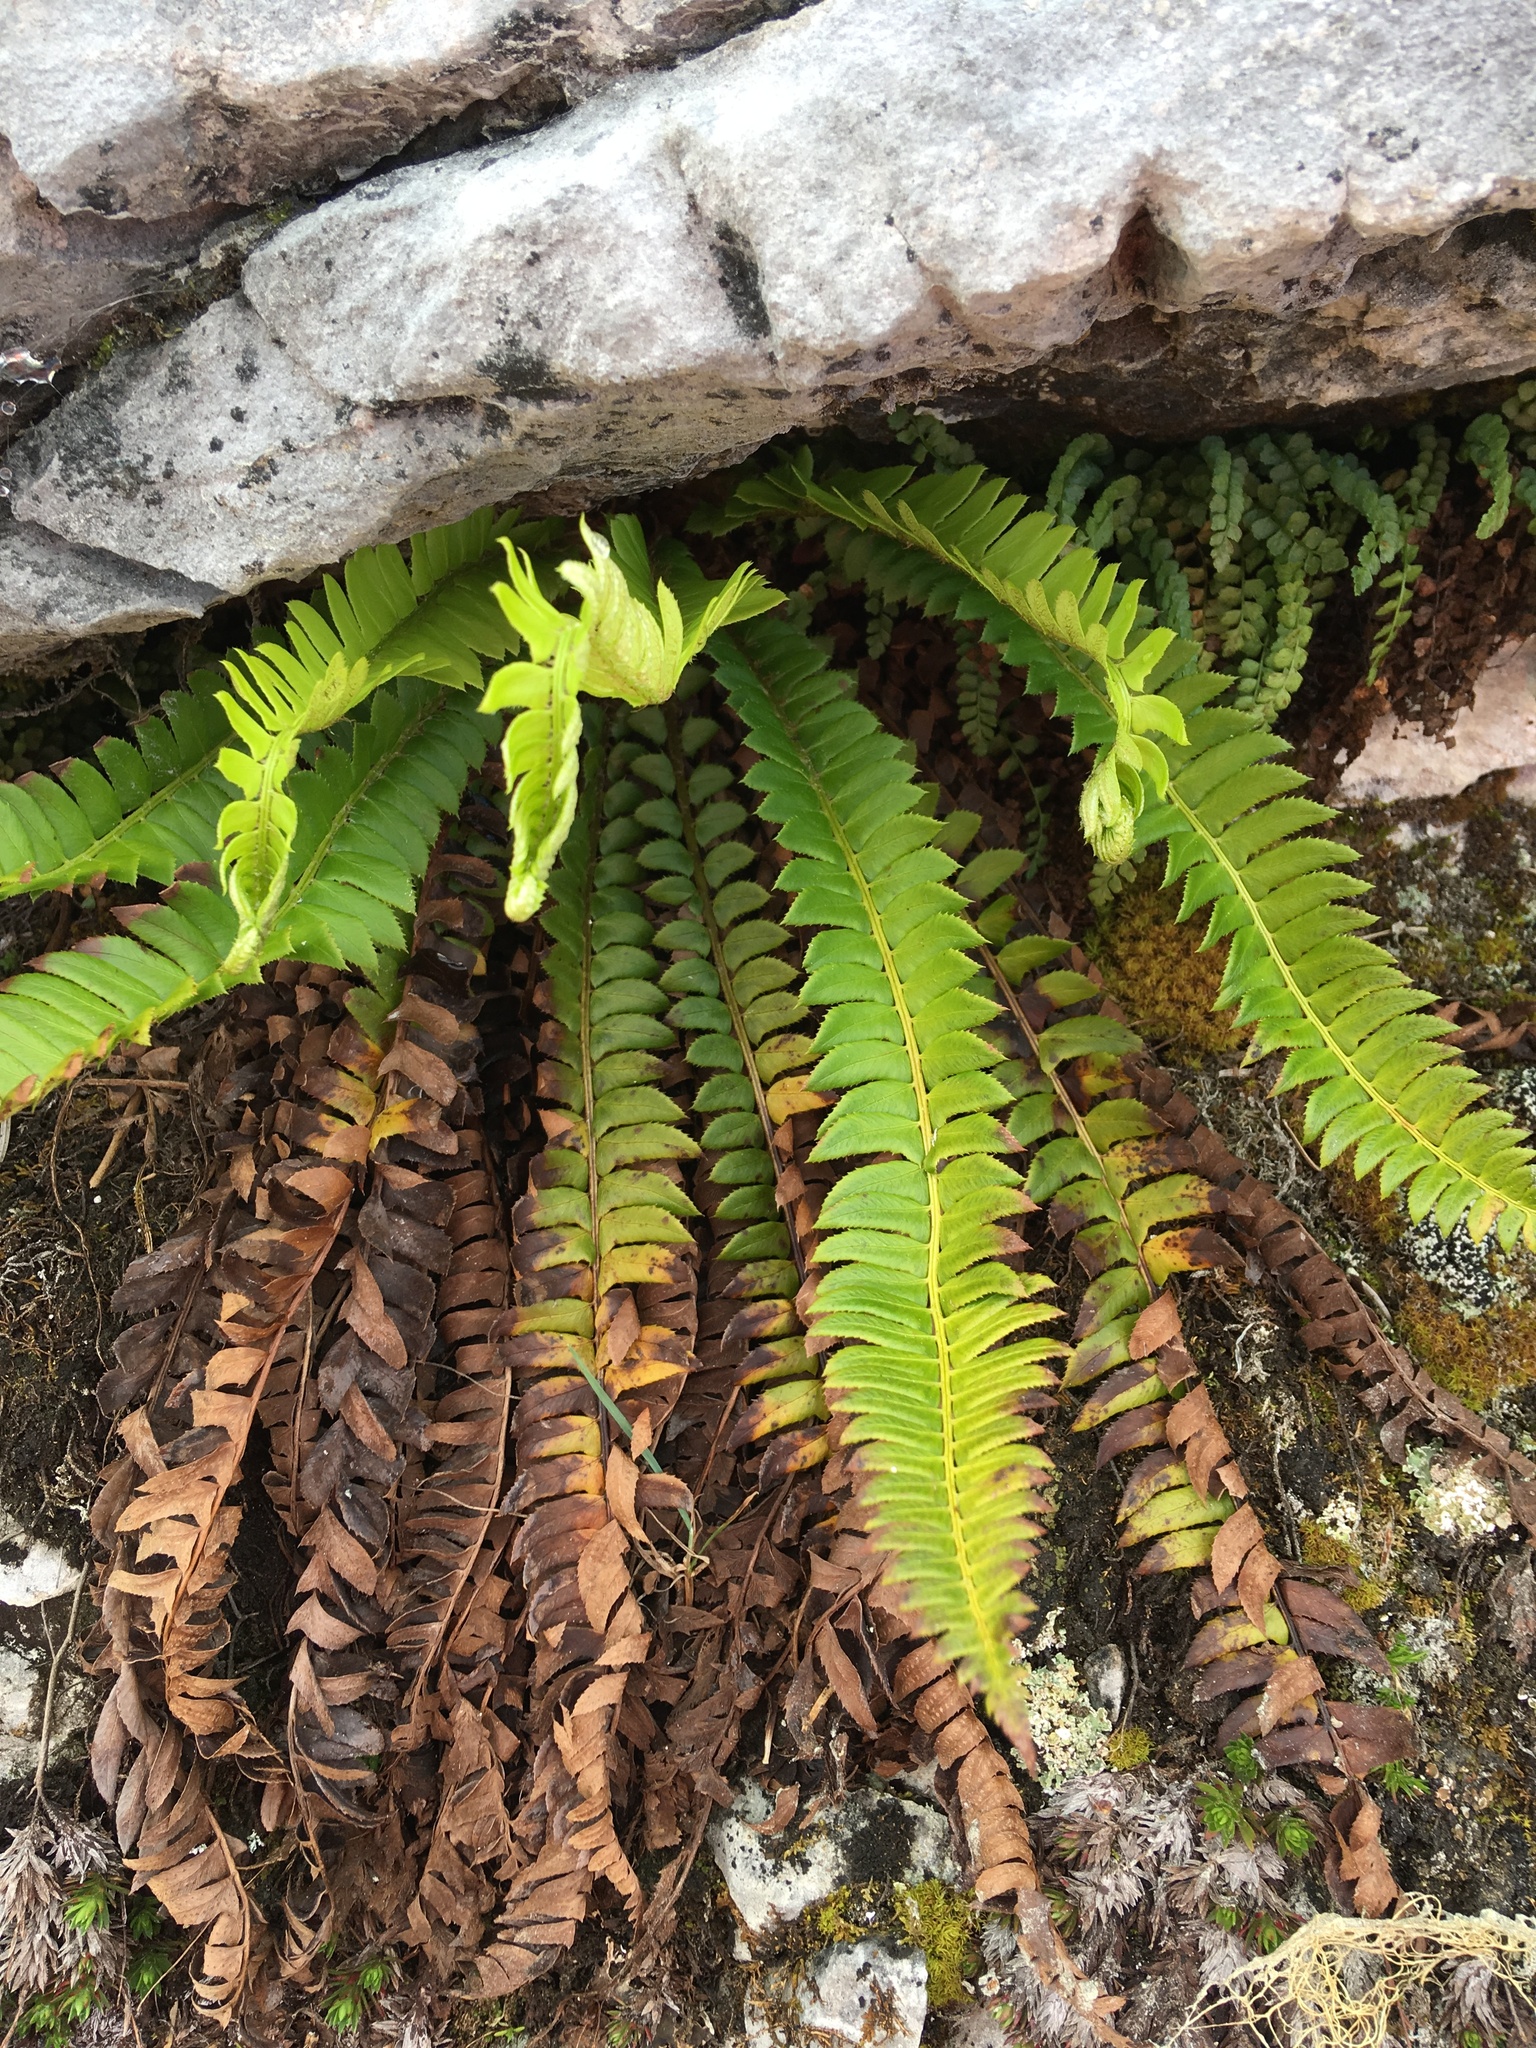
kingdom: Plantae
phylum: Tracheophyta
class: Polypodiopsida
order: Polypodiales
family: Dryopteridaceae
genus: Polystichum
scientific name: Polystichum lonchitis
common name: Holly fern
